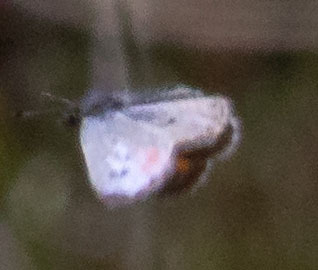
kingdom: Animalia
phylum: Arthropoda
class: Insecta
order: Lepidoptera
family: Lycaenidae
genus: Philotes
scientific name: Philotes sonorensis
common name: Sonoran blue
